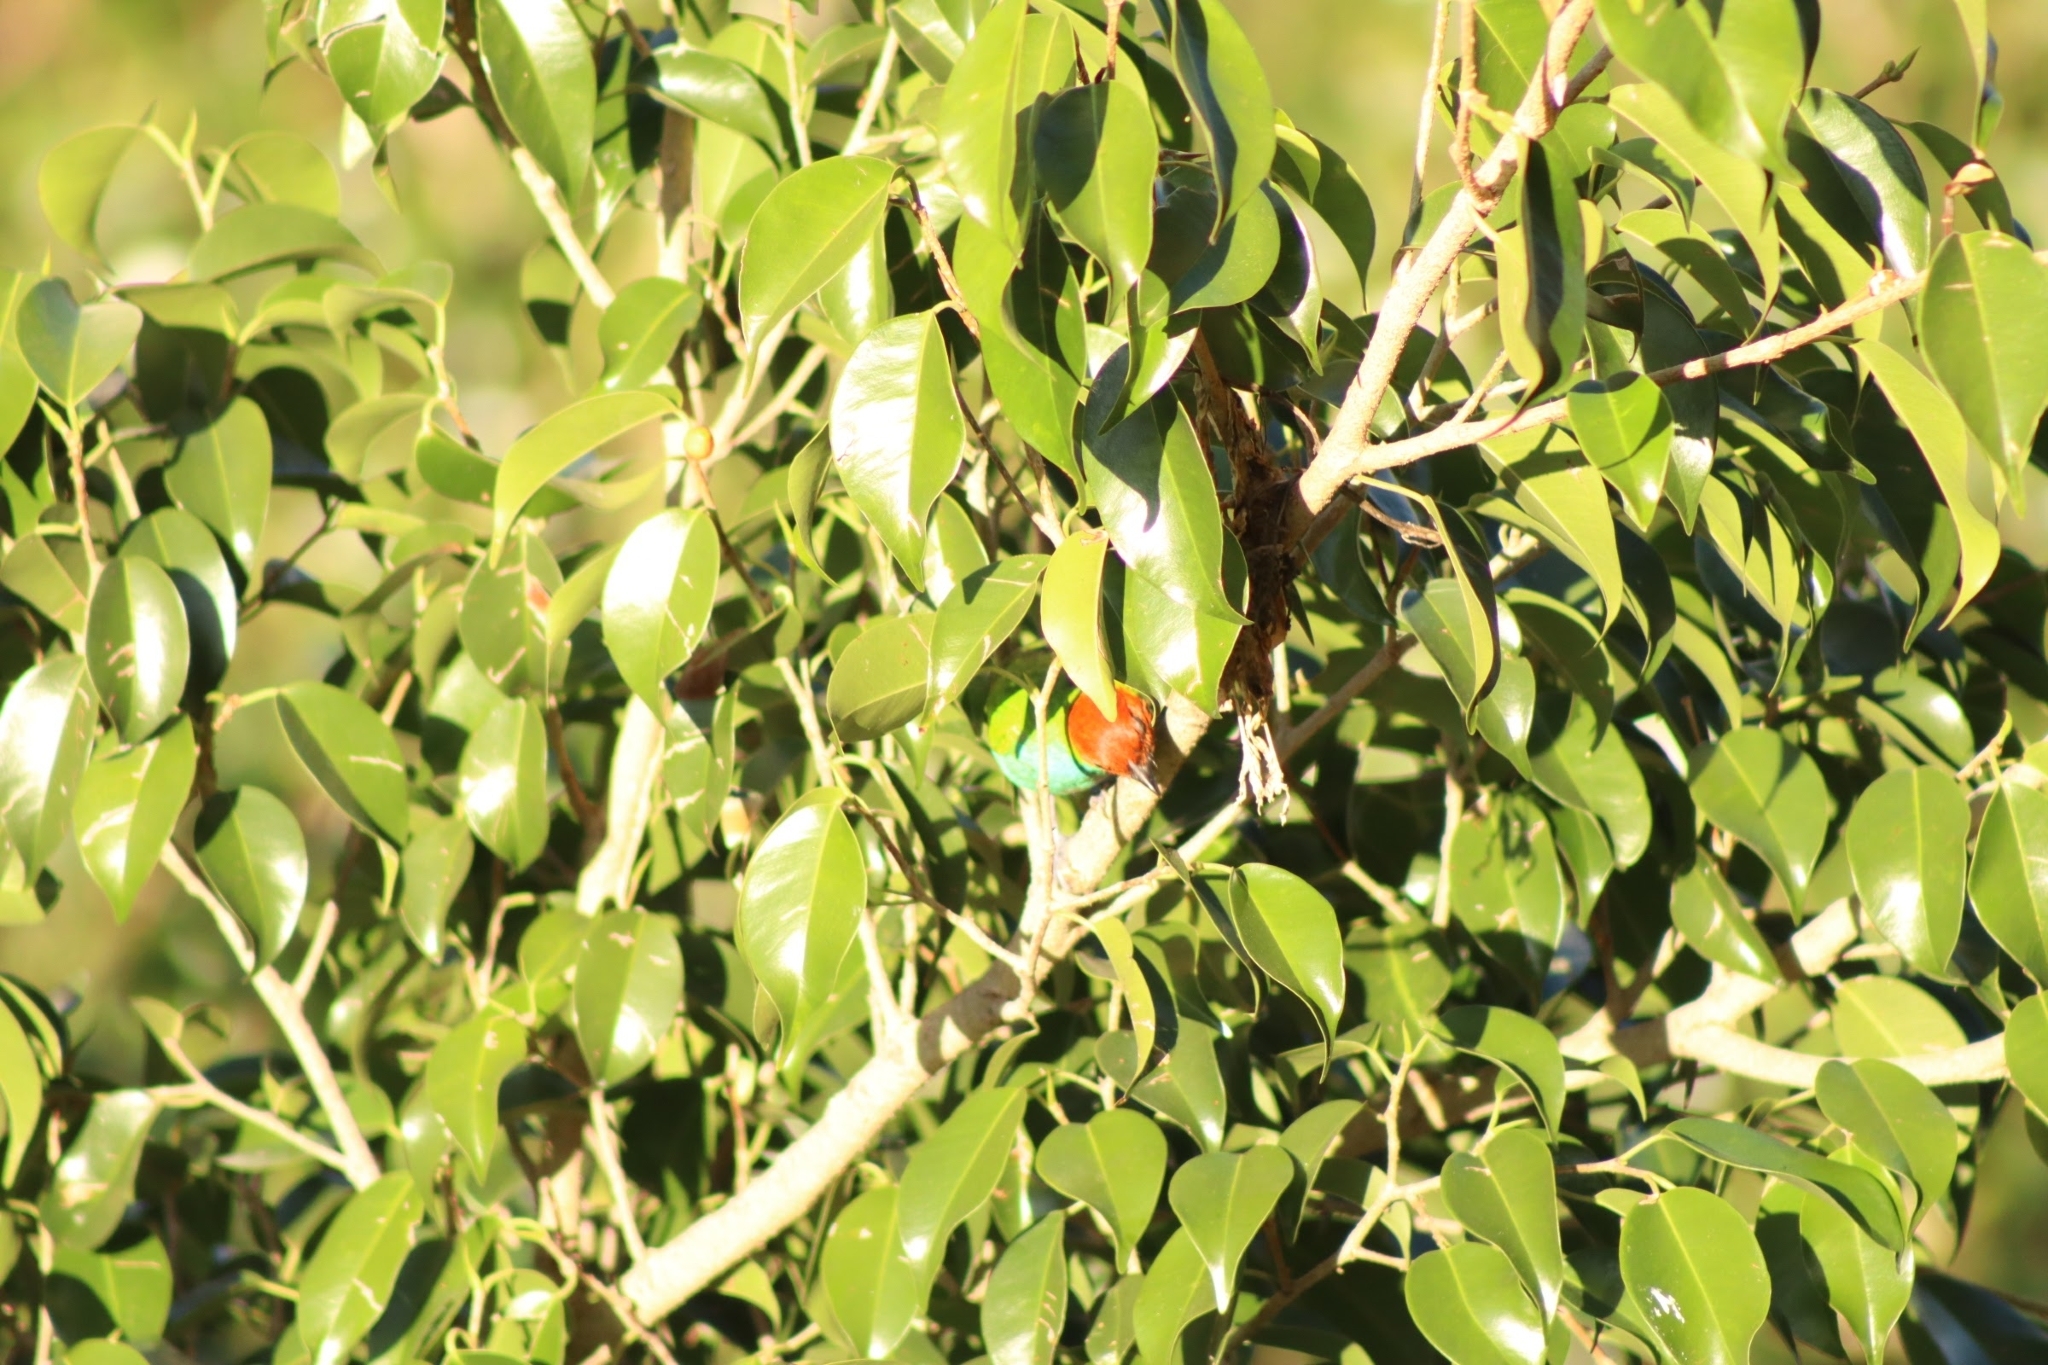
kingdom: Animalia
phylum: Chordata
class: Aves
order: Passeriformes
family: Thraupidae
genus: Tangara
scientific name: Tangara gyrola
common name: Bay-headed tanager
